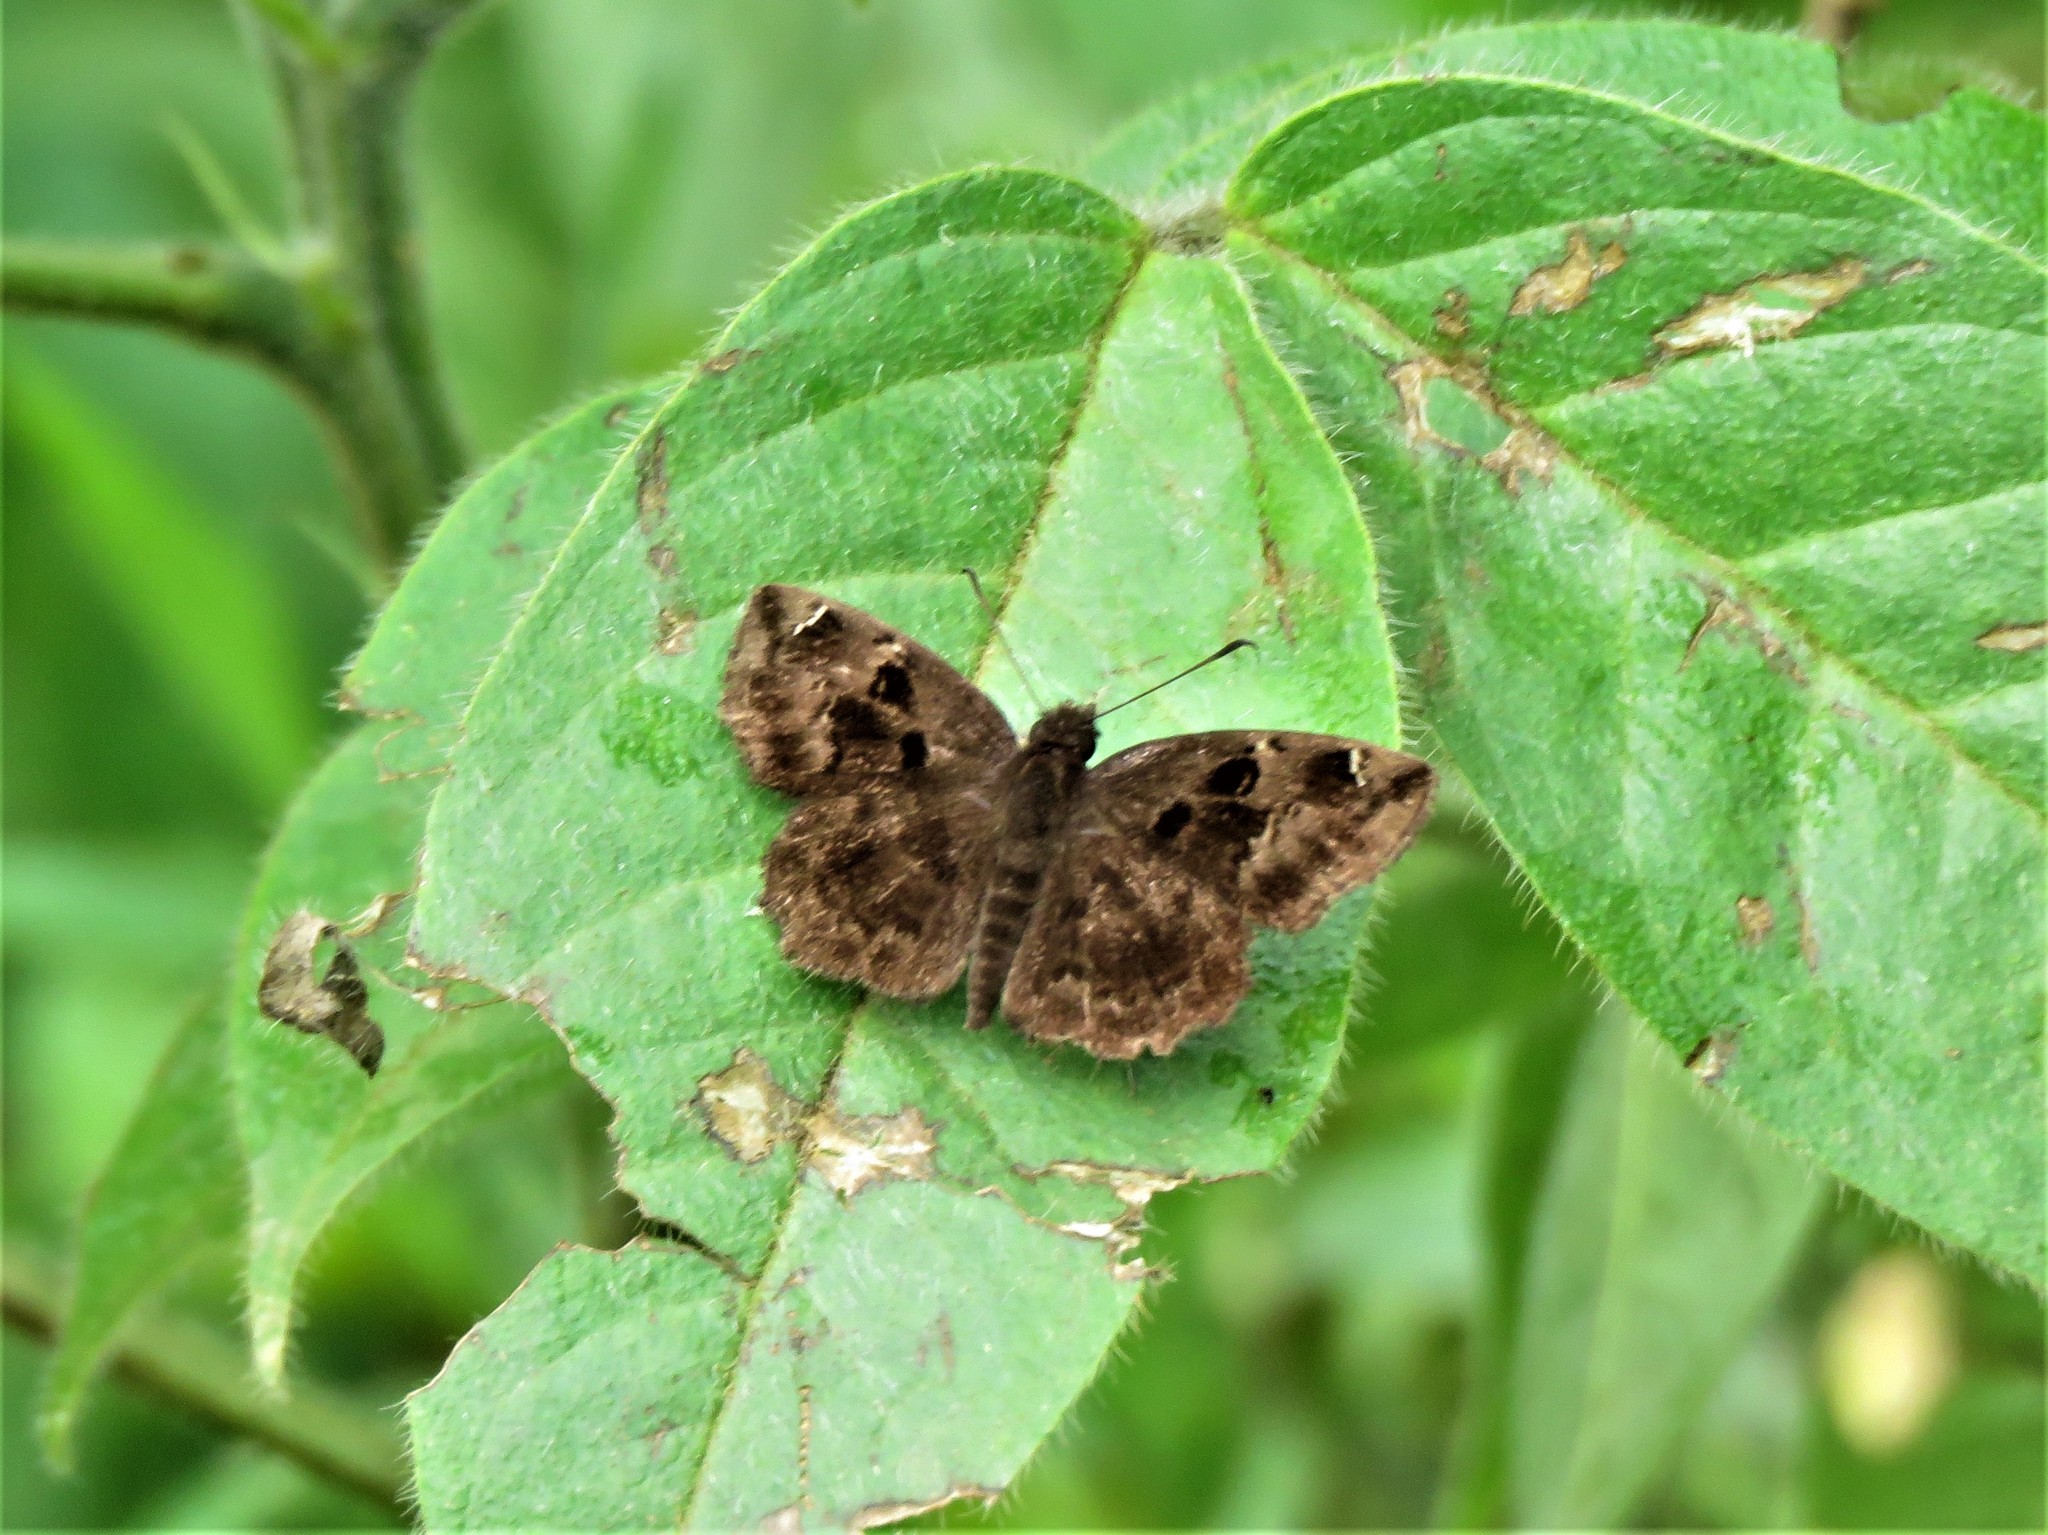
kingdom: Animalia
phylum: Arthropoda
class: Insecta
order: Lepidoptera
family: Hesperiidae
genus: Eretis
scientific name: Eretis lugens
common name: Savanna elf
